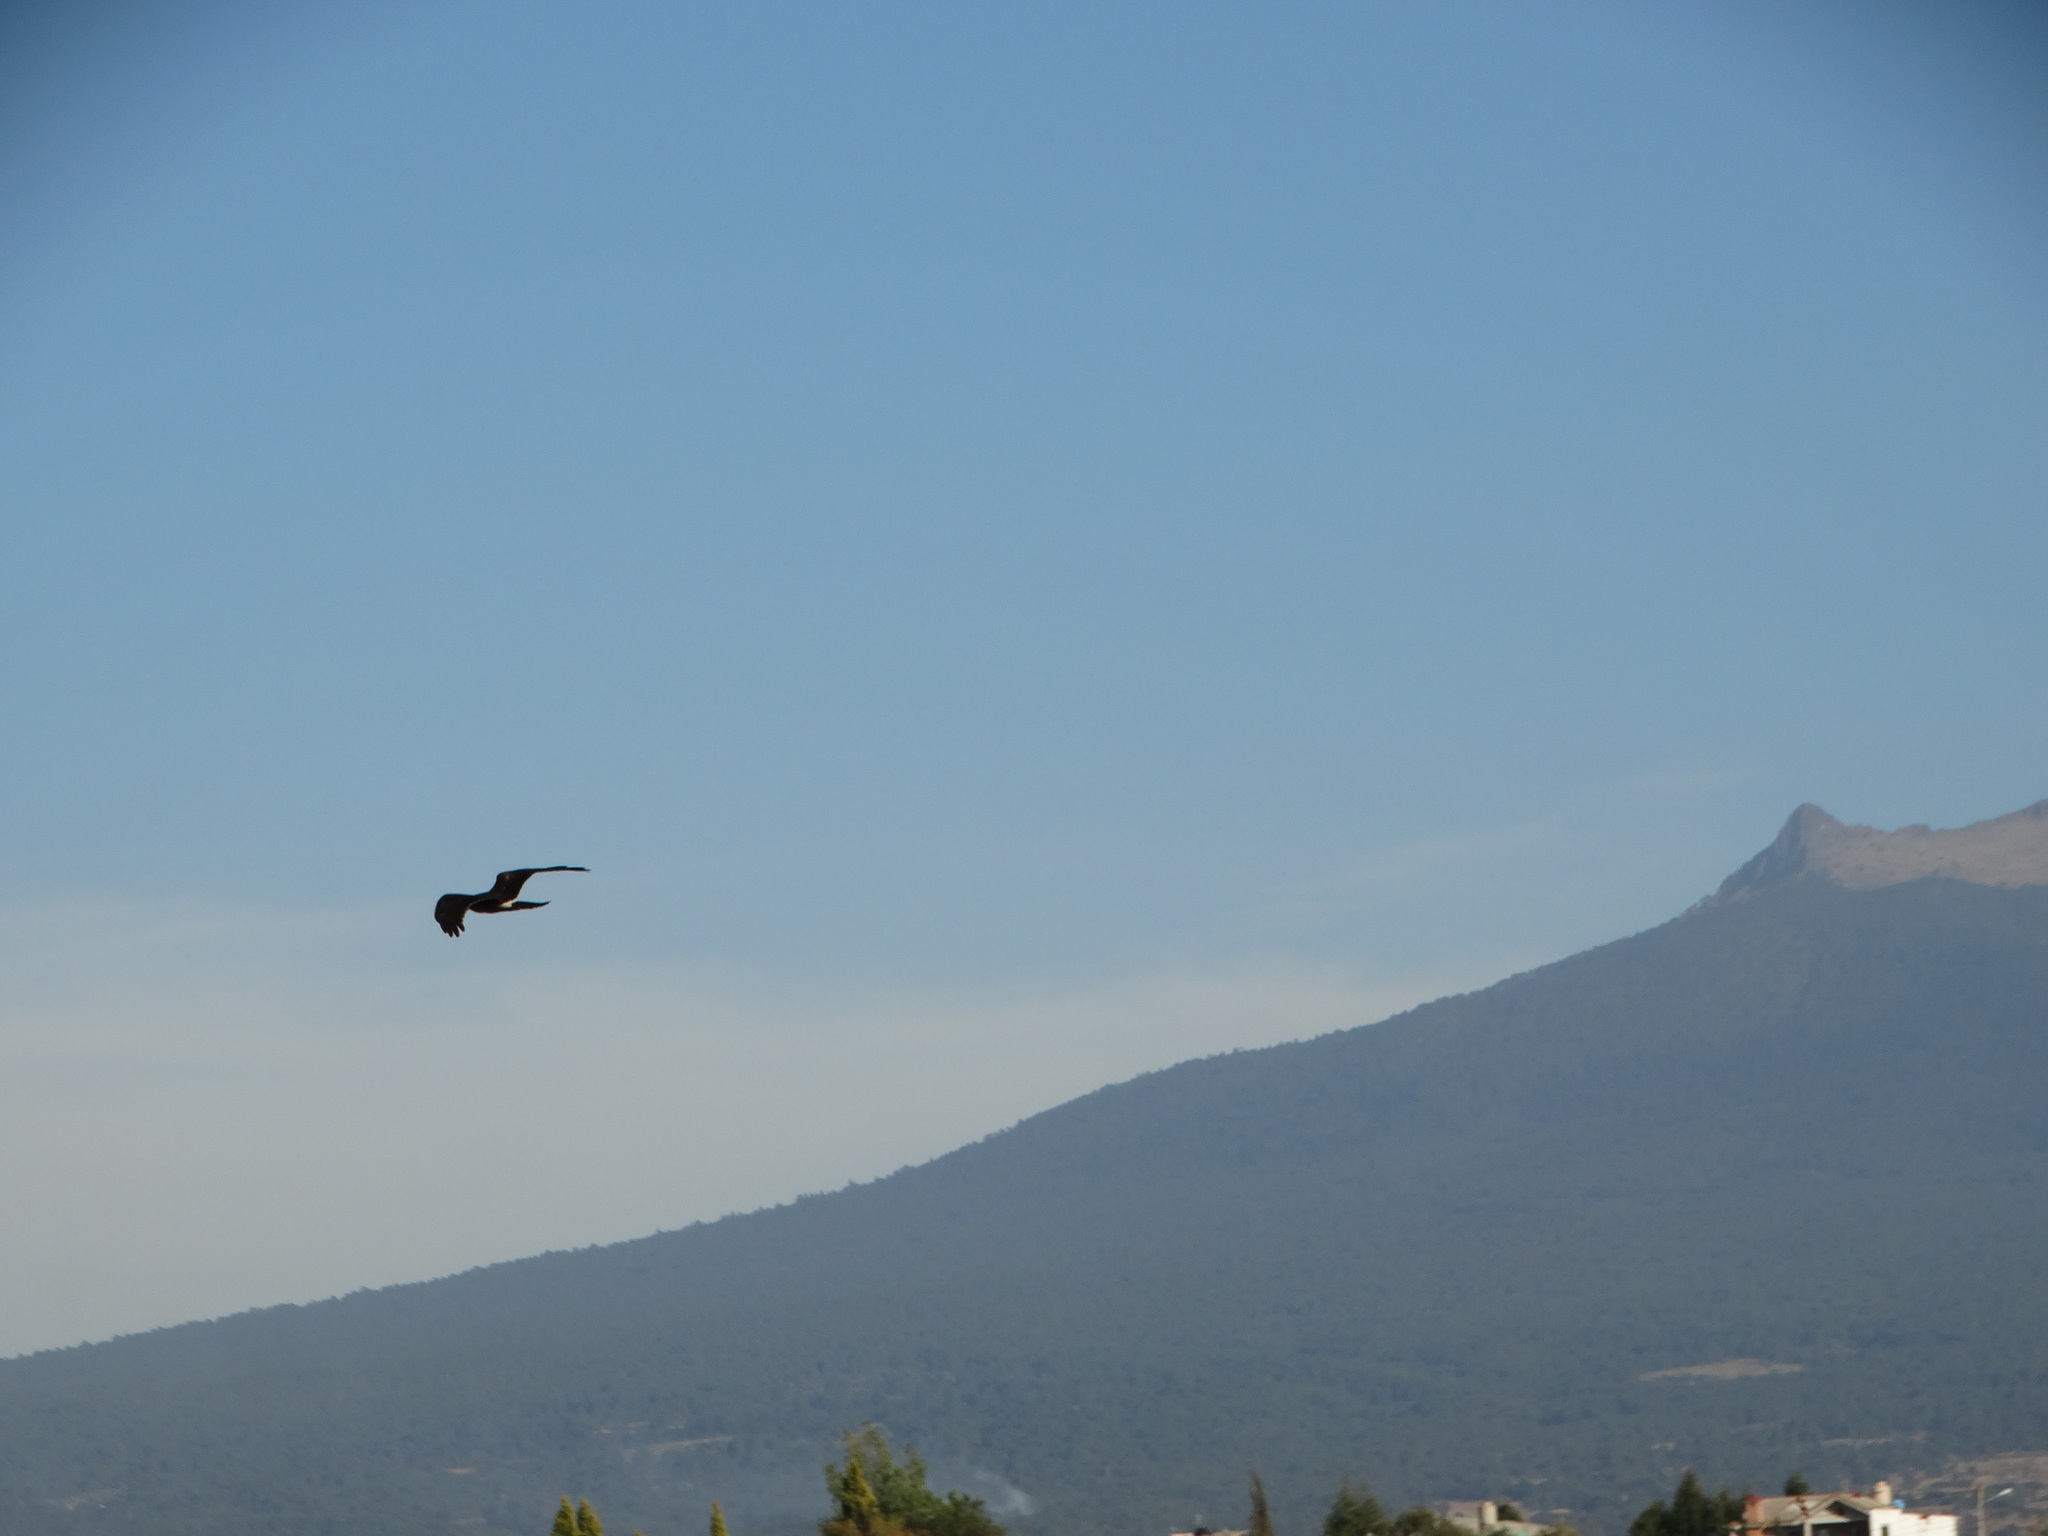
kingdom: Animalia
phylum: Chordata
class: Aves
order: Accipitriformes
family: Accipitridae
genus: Circus
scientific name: Circus cyaneus
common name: Hen harrier
